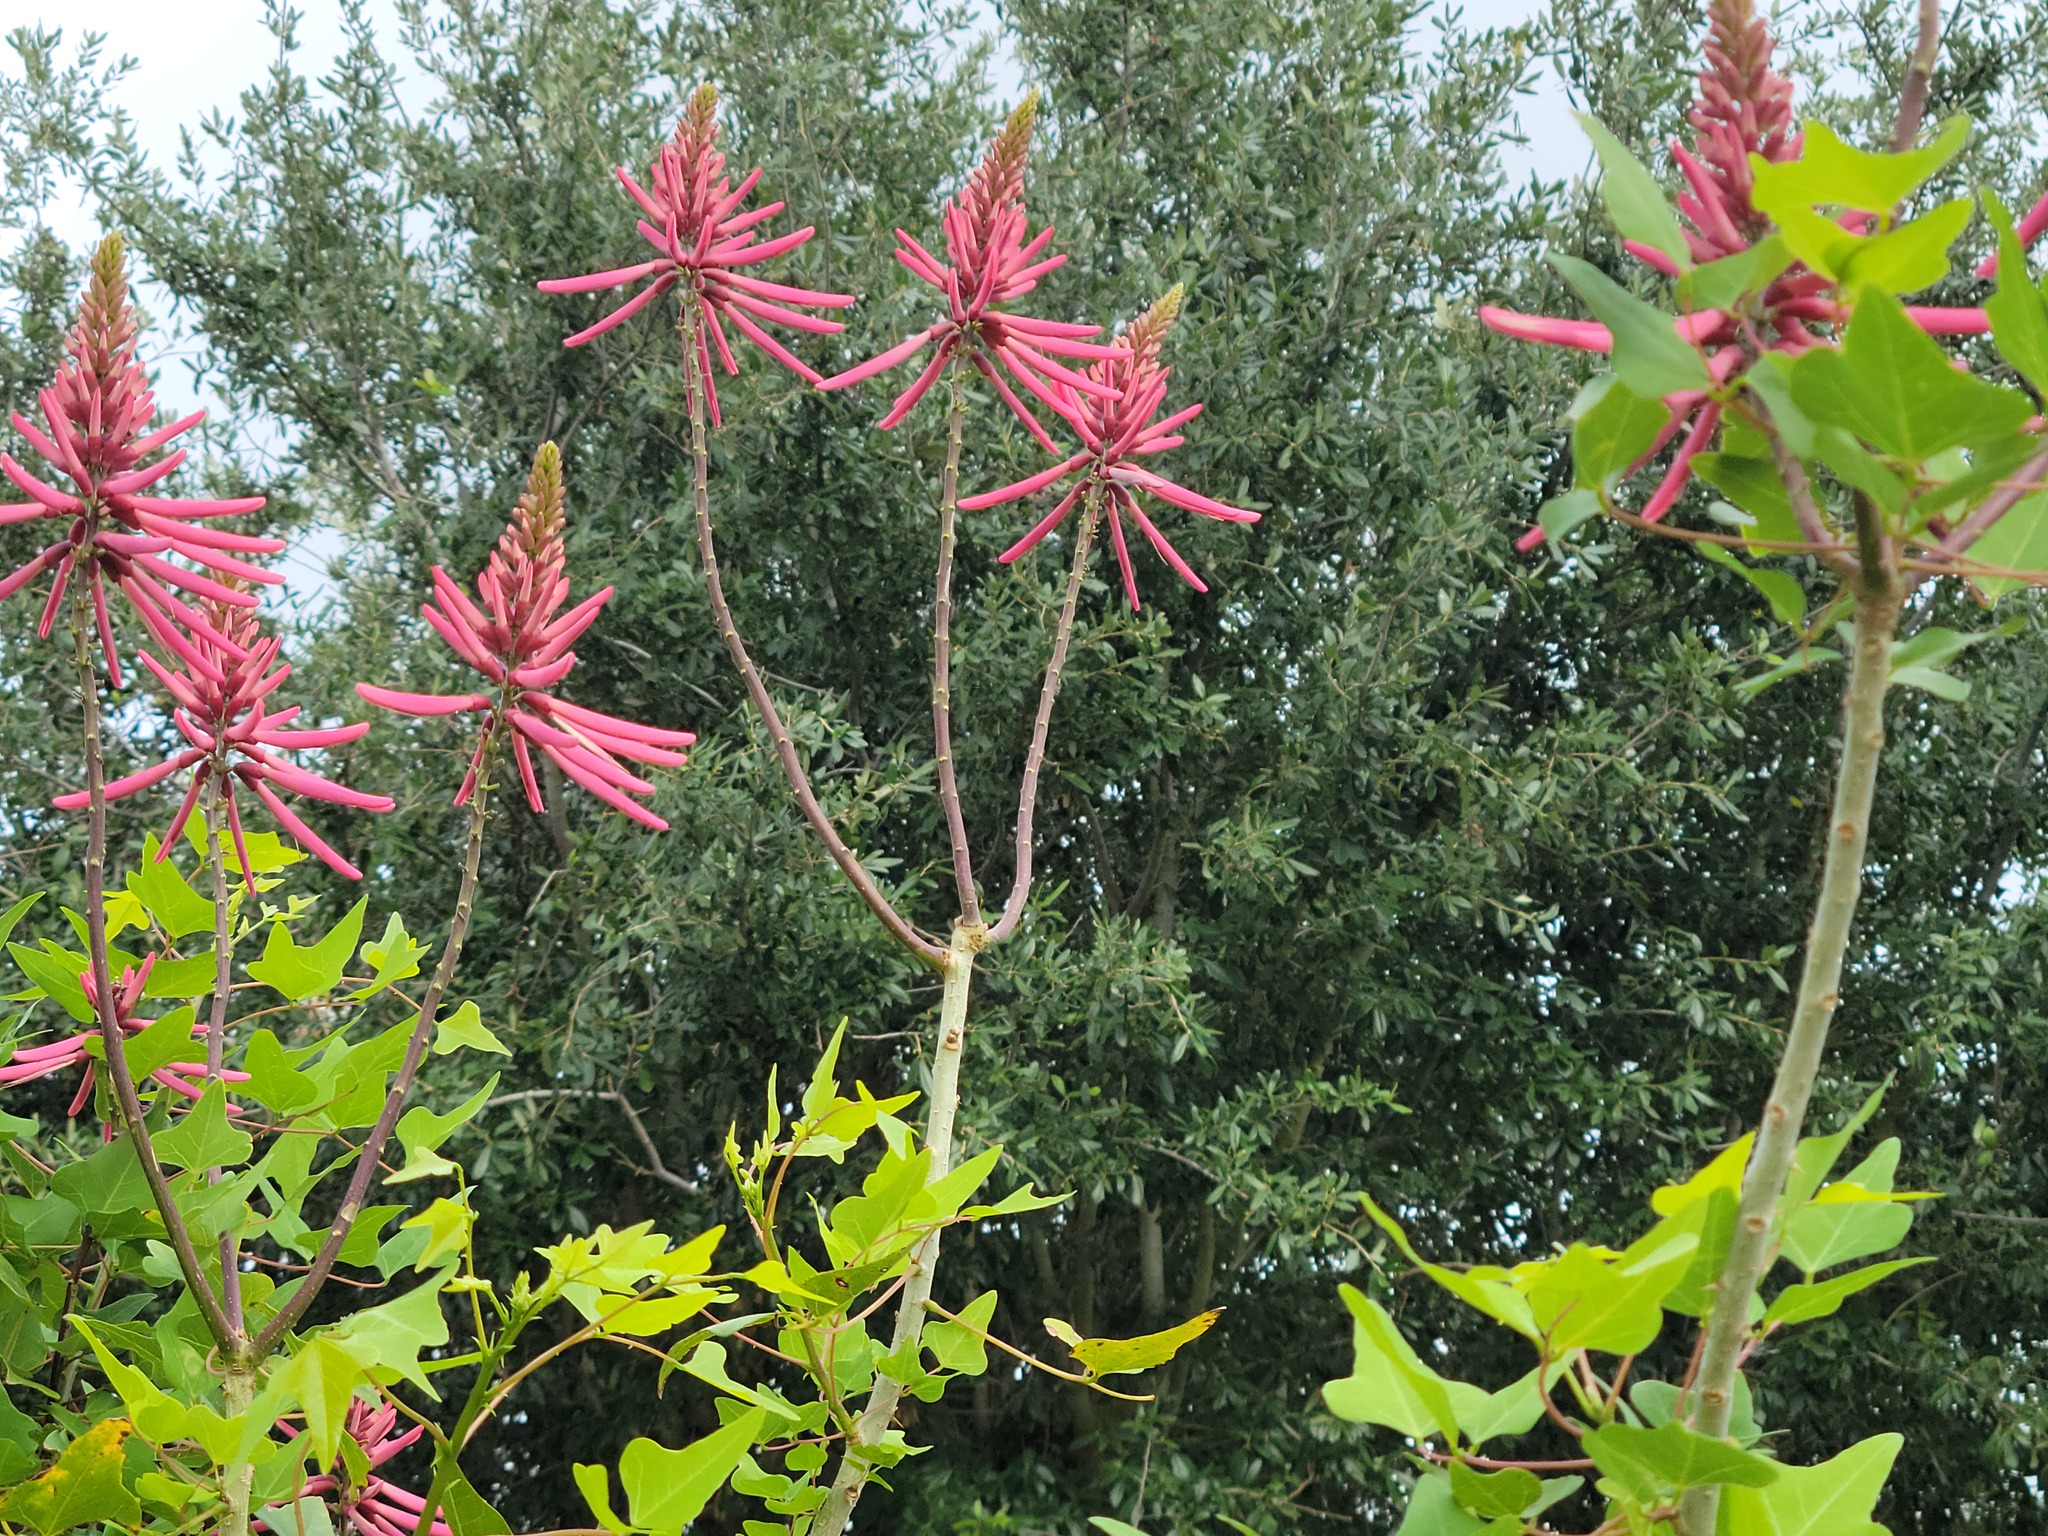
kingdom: Plantae
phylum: Tracheophyta
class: Magnoliopsida
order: Fabales
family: Fabaceae
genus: Erythrina
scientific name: Erythrina herbacea
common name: Coral-bean
